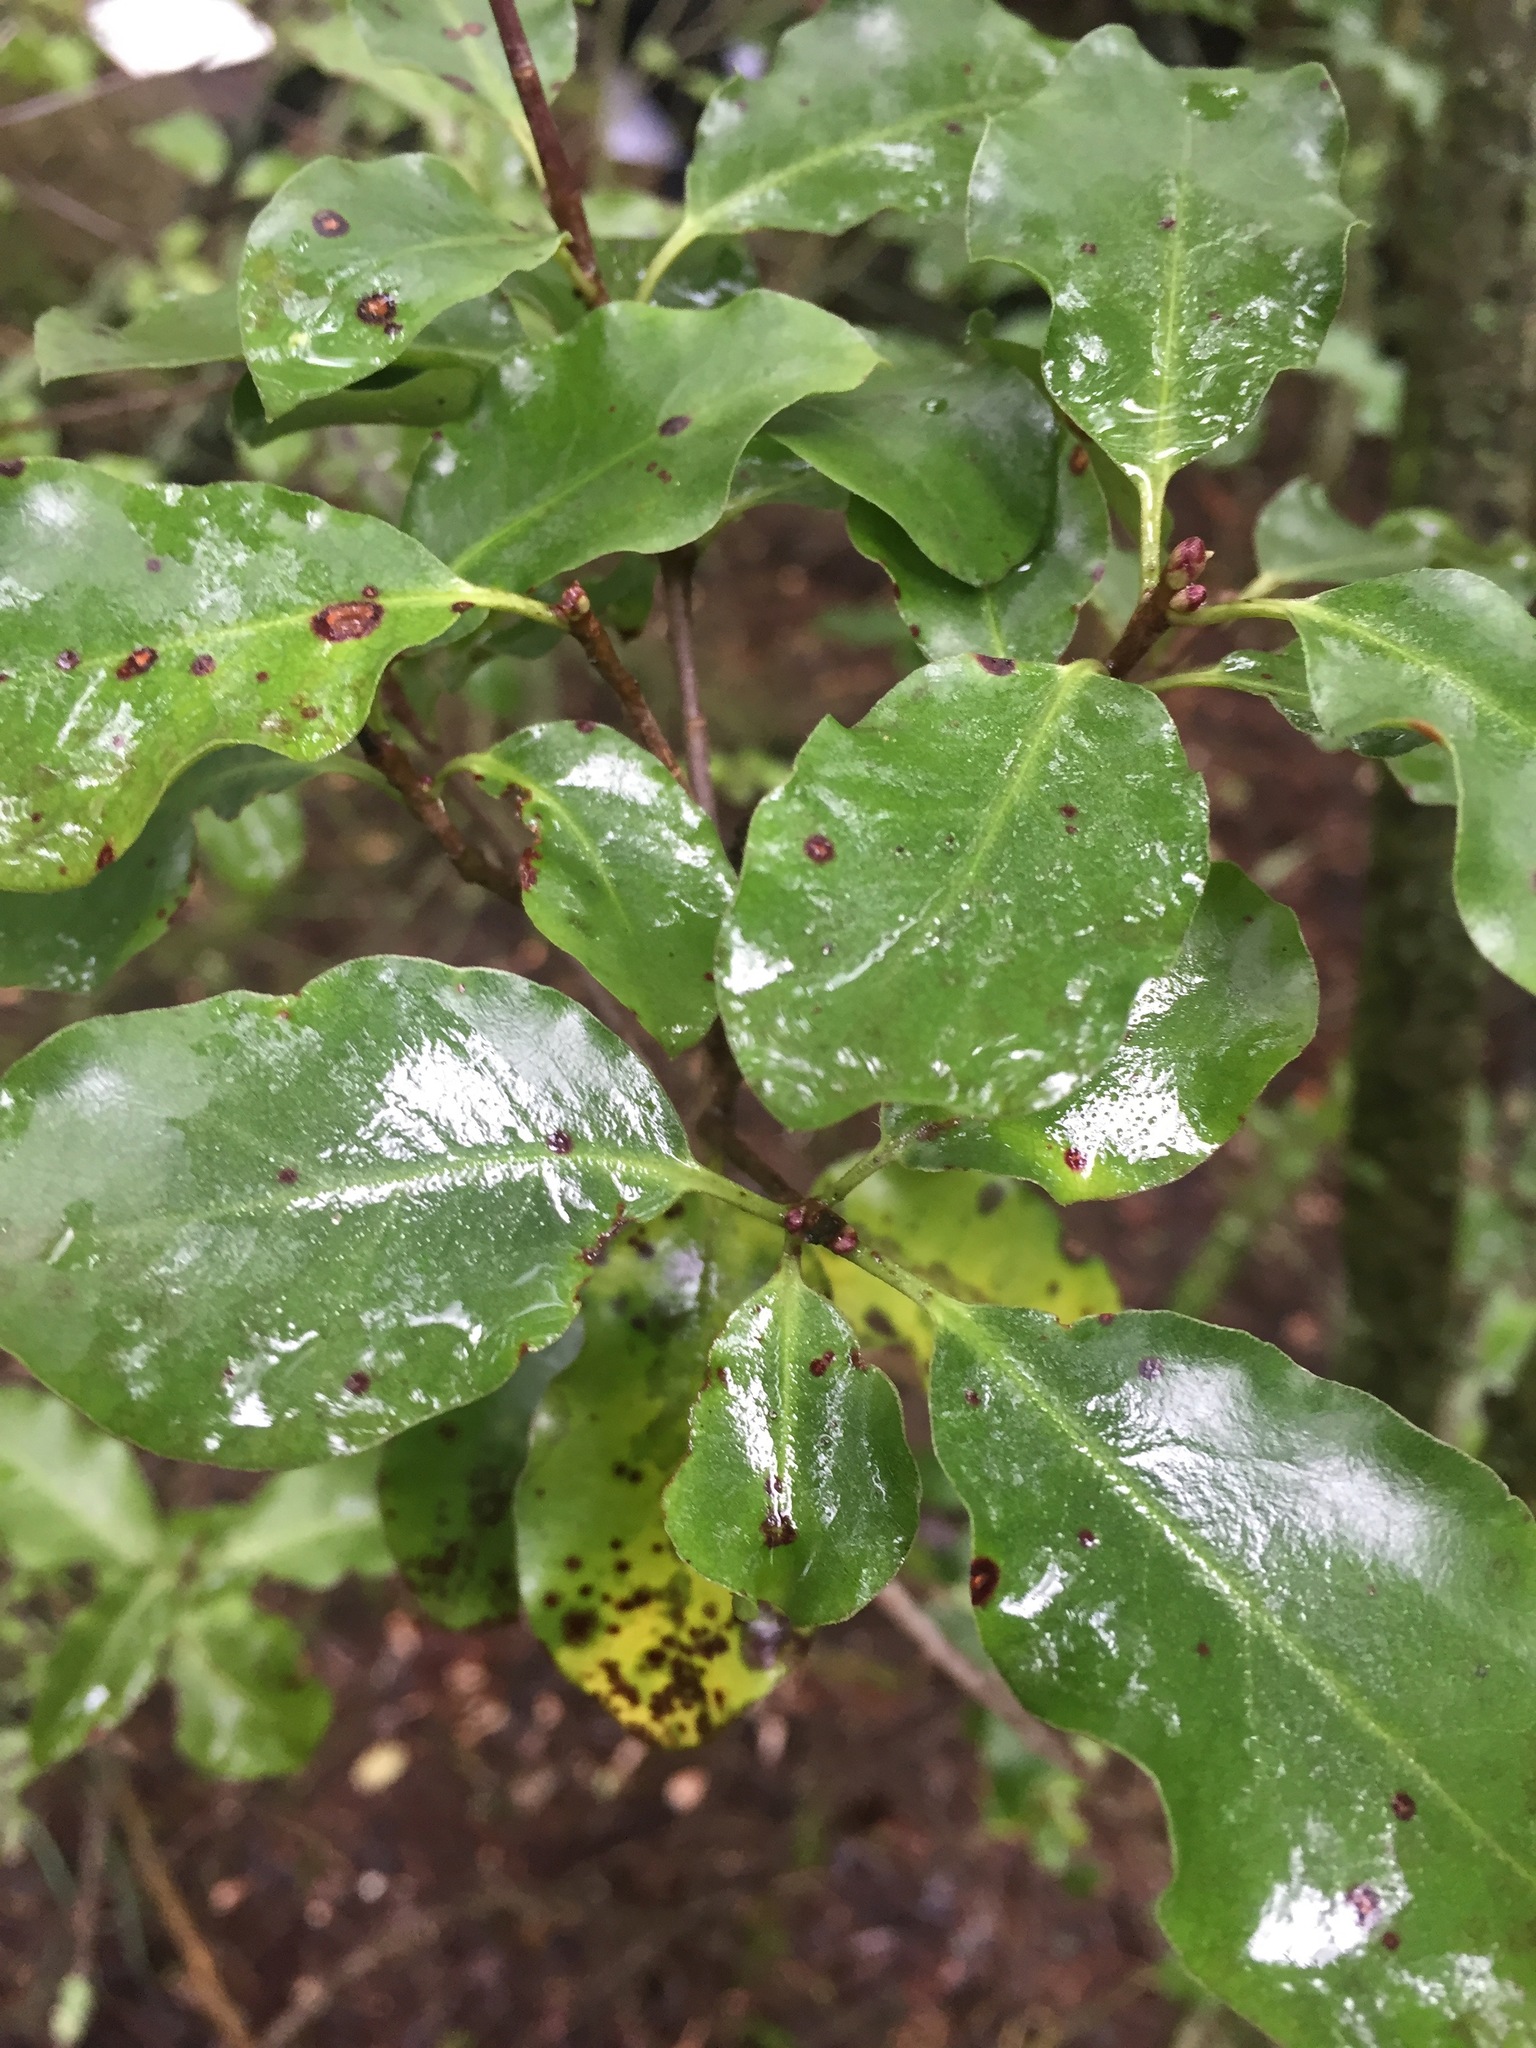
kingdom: Plantae
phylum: Tracheophyta
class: Magnoliopsida
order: Apiales
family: Pittosporaceae
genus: Pittosporum
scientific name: Pittosporum tenuifolium
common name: Kohuhu
